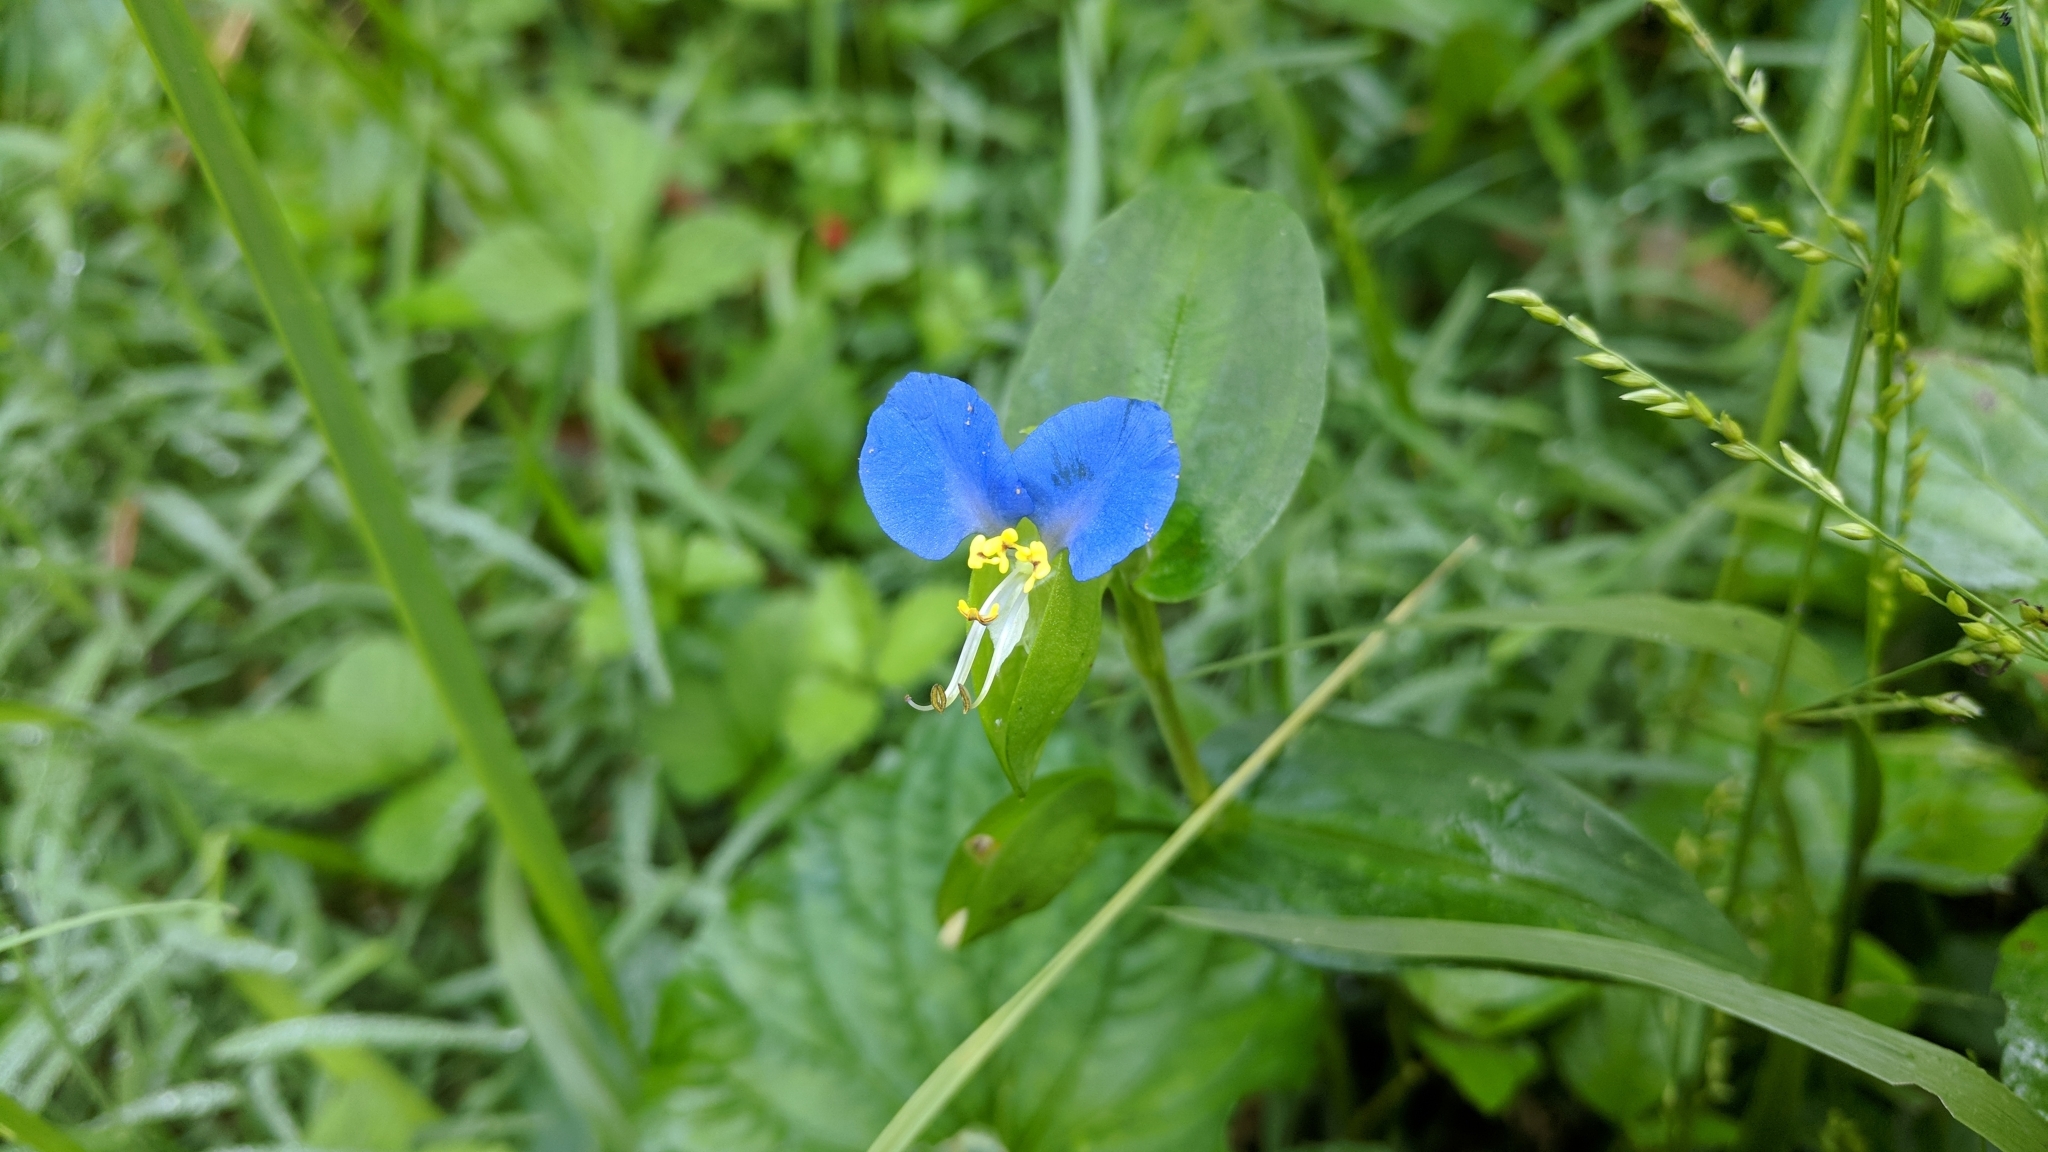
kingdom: Plantae
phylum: Tracheophyta
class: Liliopsida
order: Commelinales
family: Commelinaceae
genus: Commelina
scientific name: Commelina communis
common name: Asiatic dayflower
